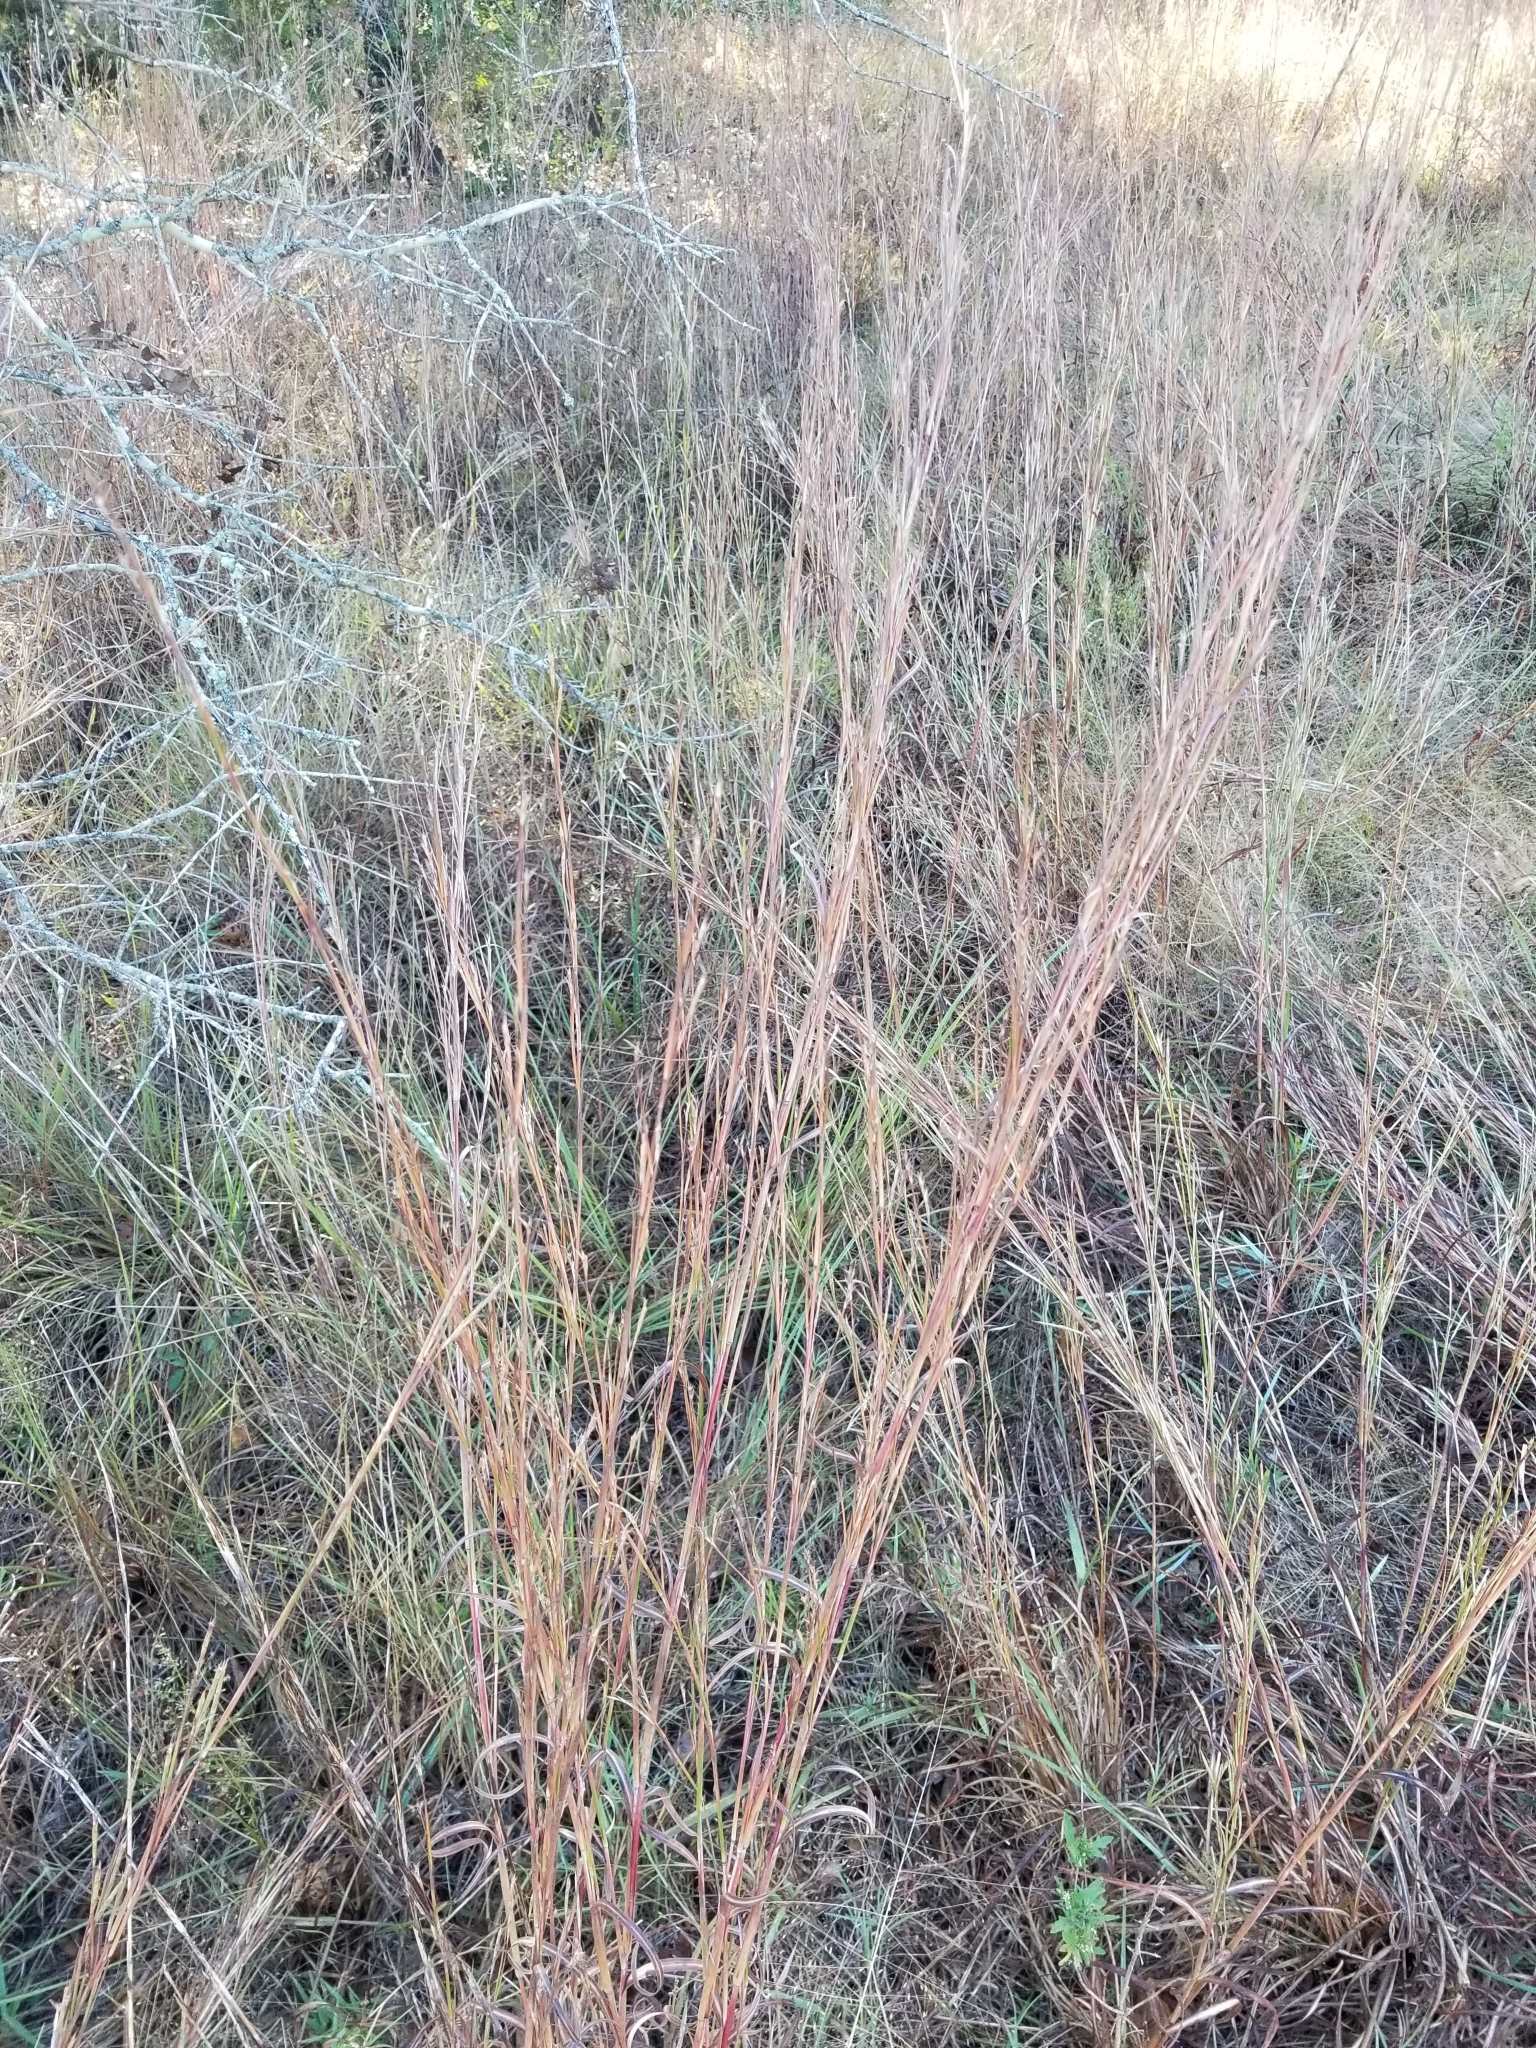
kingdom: Plantae
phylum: Tracheophyta
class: Liliopsida
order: Poales
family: Poaceae
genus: Schizachyrium
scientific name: Schizachyrium scoparium
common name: Little bluestem
